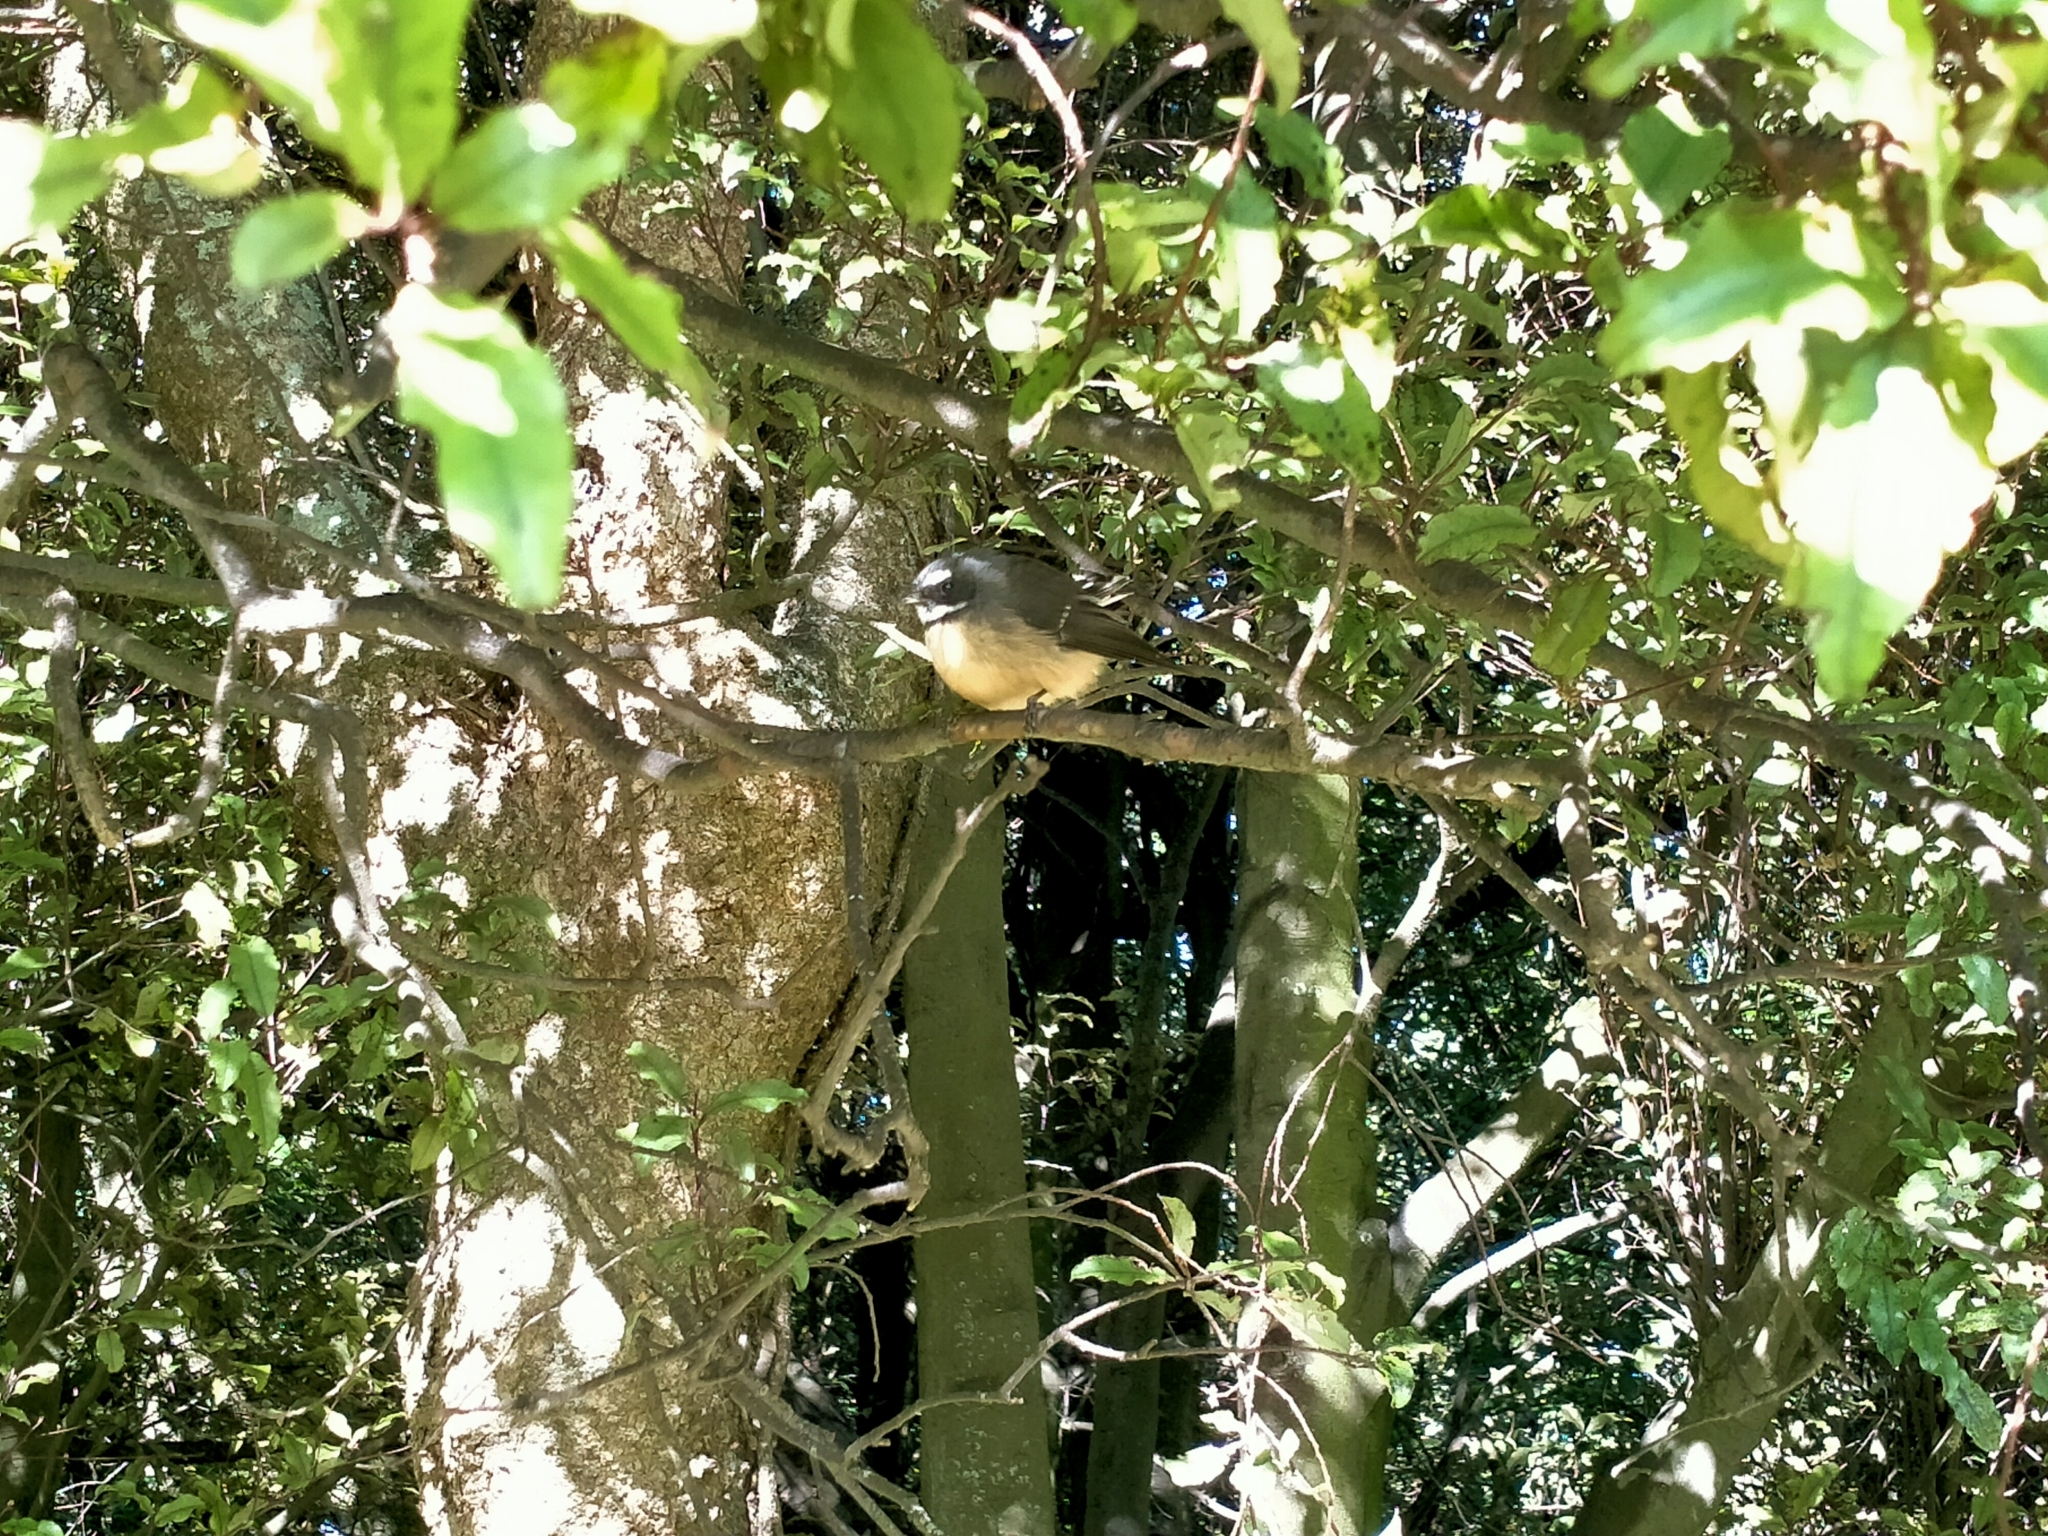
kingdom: Animalia
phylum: Chordata
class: Aves
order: Passeriformes
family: Rhipiduridae
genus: Rhipidura
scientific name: Rhipidura fuliginosa
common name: New zealand fantail
